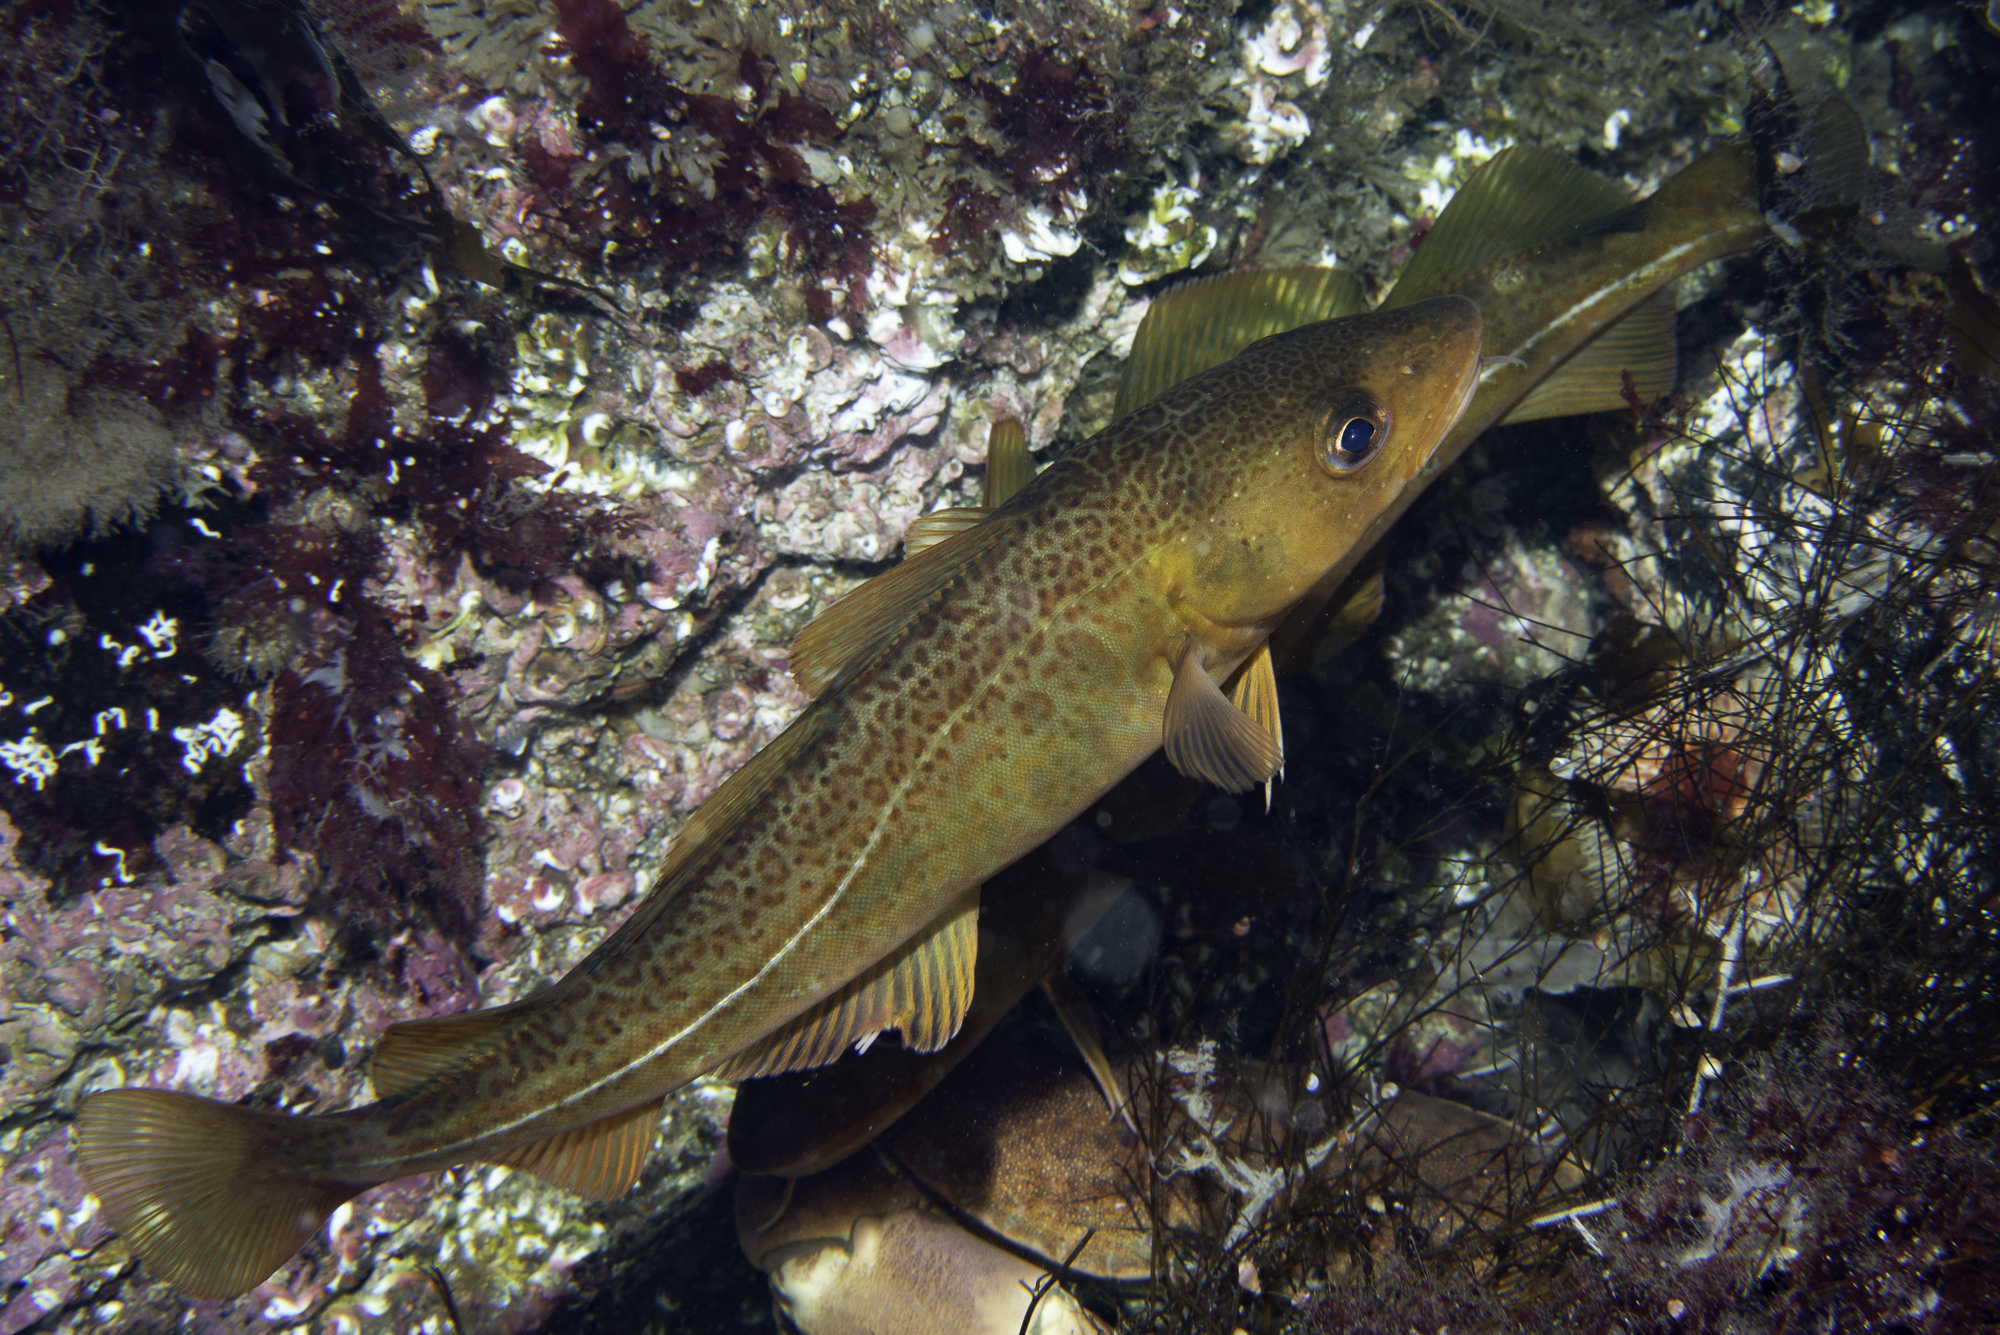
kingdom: Animalia
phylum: Chordata
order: Gadiformes
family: Gadidae
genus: Gadus
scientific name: Gadus morhua
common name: Atlantic cod
